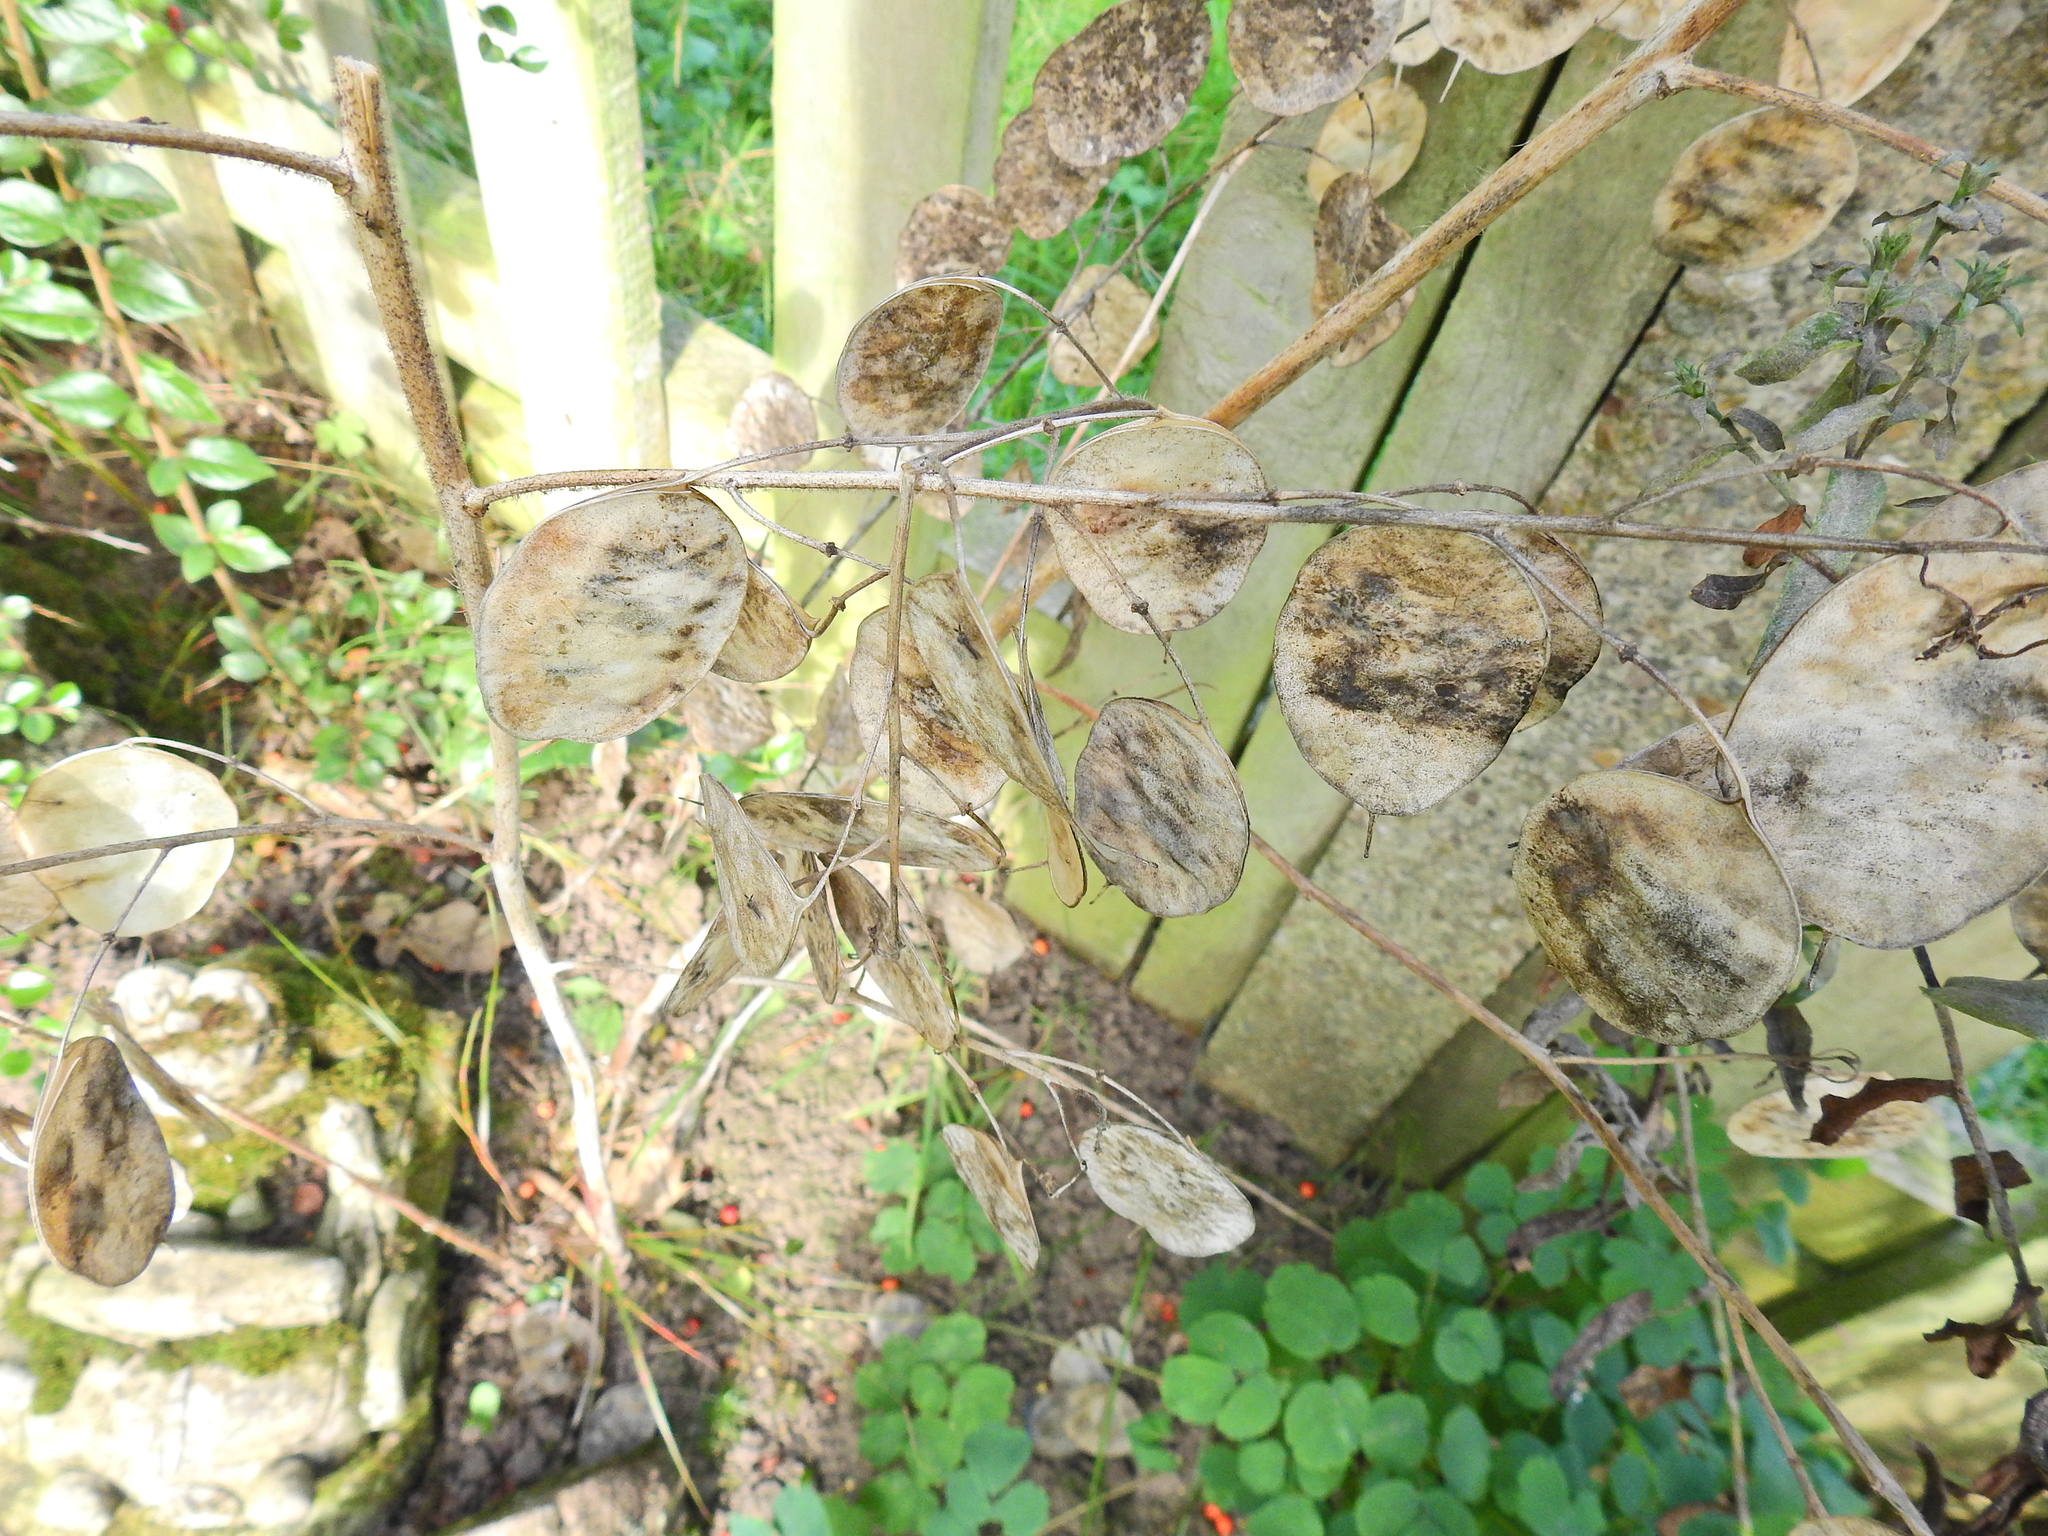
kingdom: Plantae
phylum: Tracheophyta
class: Magnoliopsida
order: Brassicales
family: Brassicaceae
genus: Lunaria
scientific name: Lunaria annua
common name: Honesty
